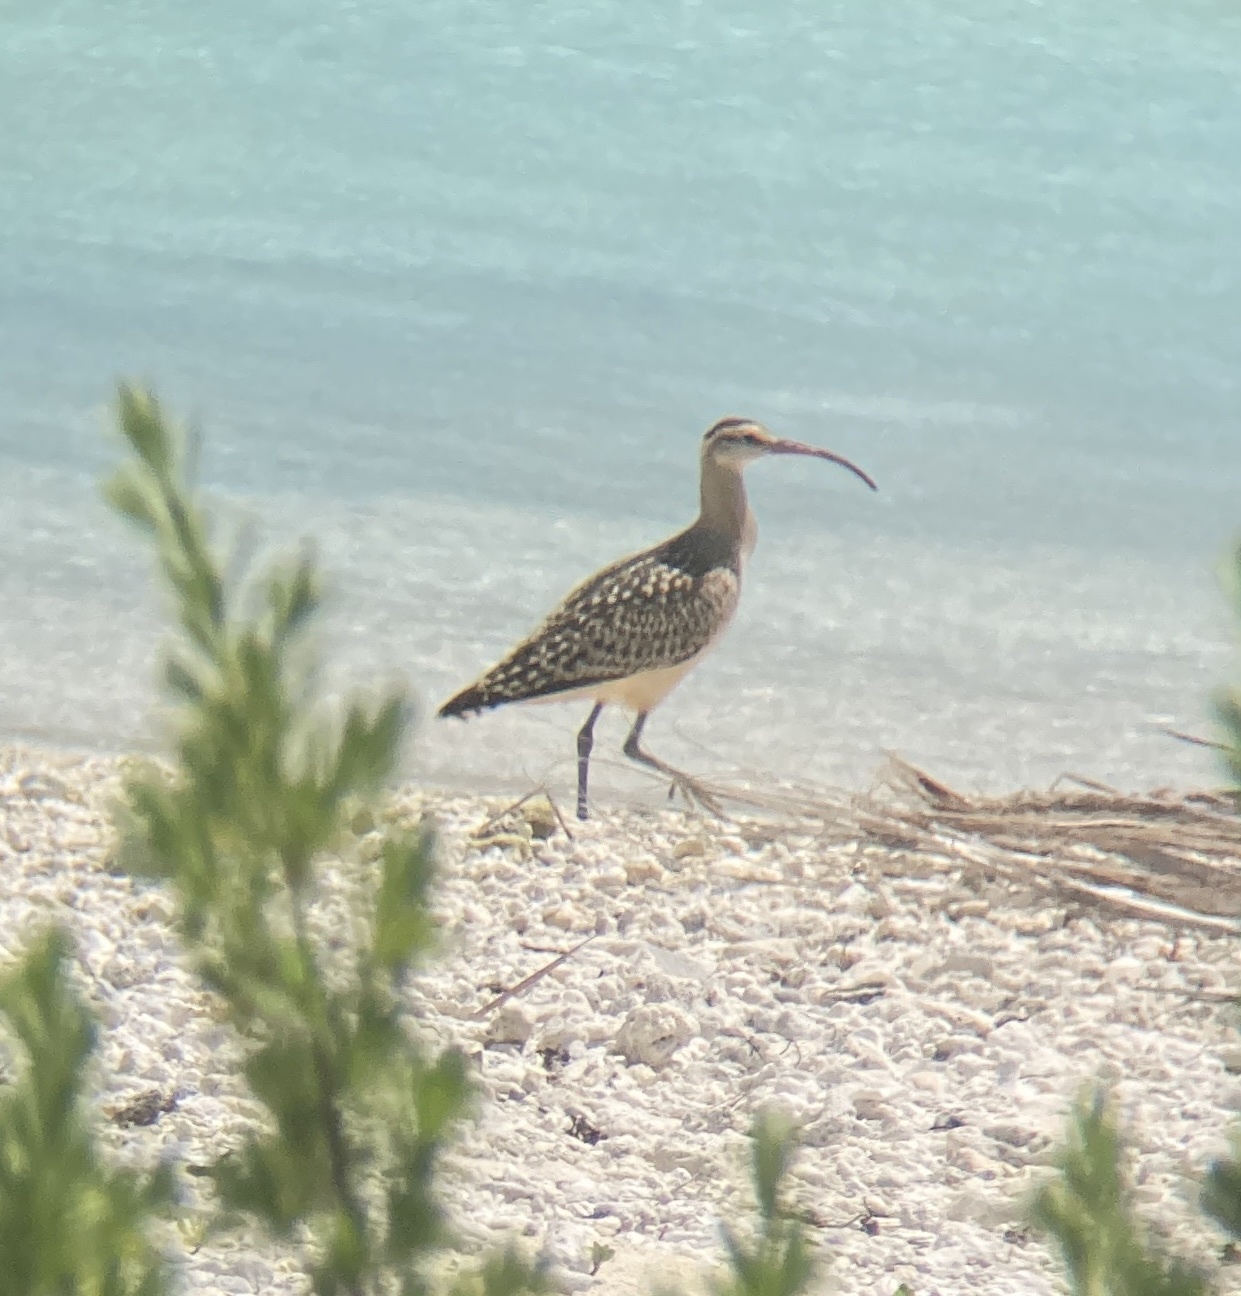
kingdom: Animalia
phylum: Chordata
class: Aves
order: Charadriiformes
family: Scolopacidae
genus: Numenius
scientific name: Numenius tahitiensis
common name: Bristle-thighed curlew
